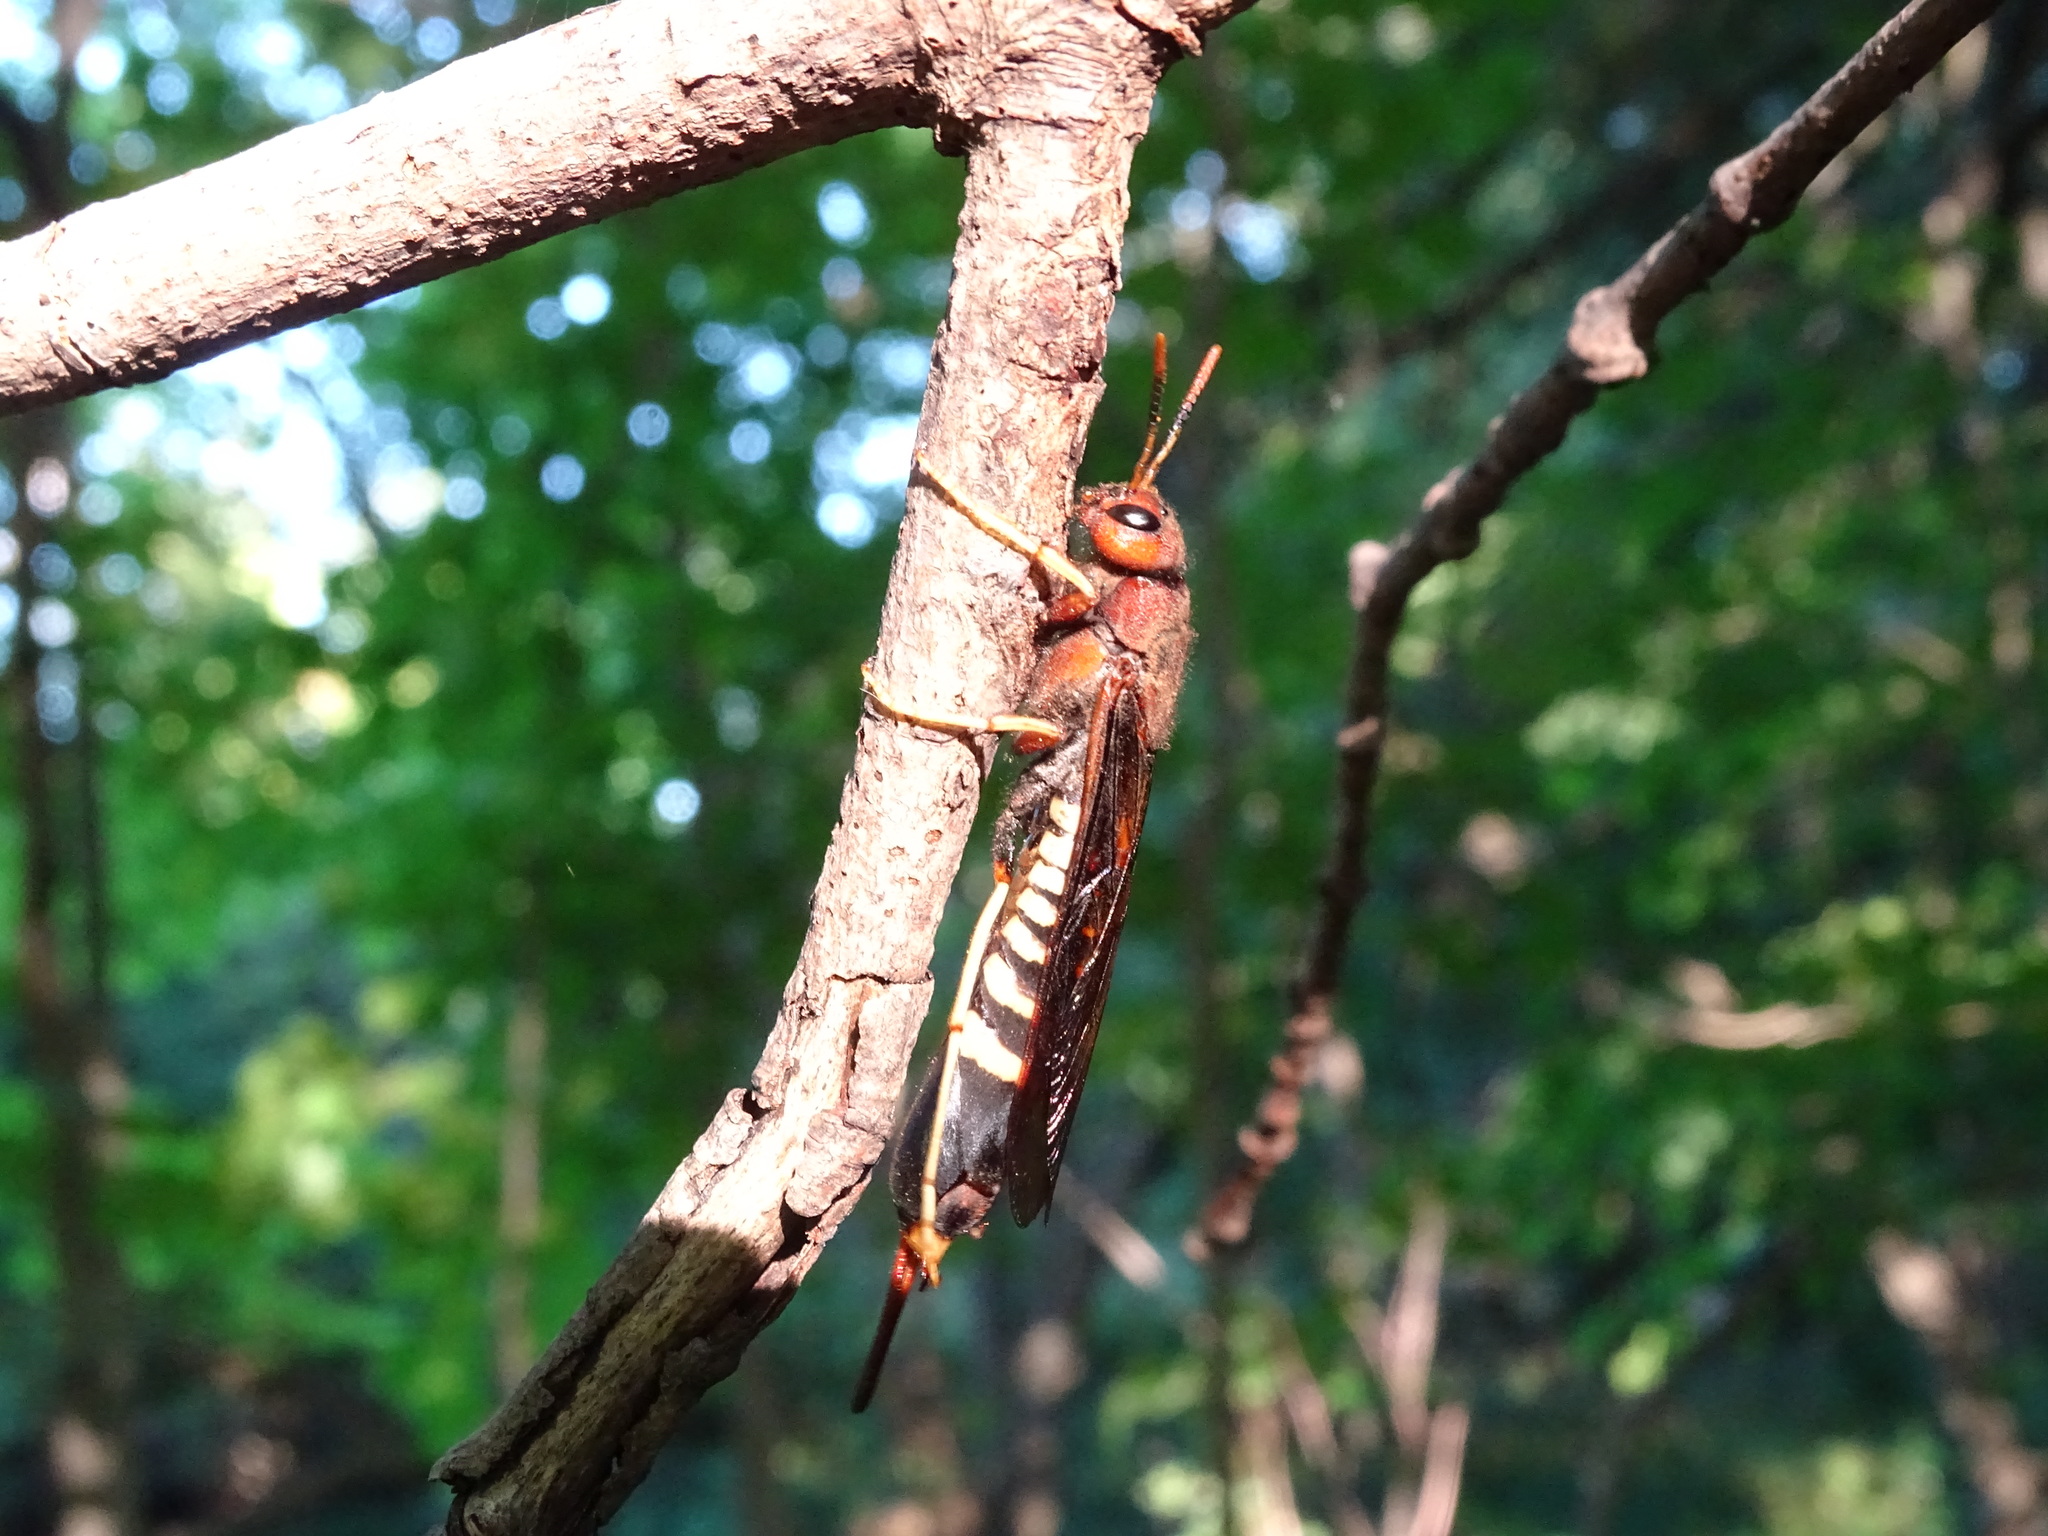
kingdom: Animalia
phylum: Arthropoda
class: Insecta
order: Hymenoptera
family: Siricidae
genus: Tremex
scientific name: Tremex columba
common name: Wasp
